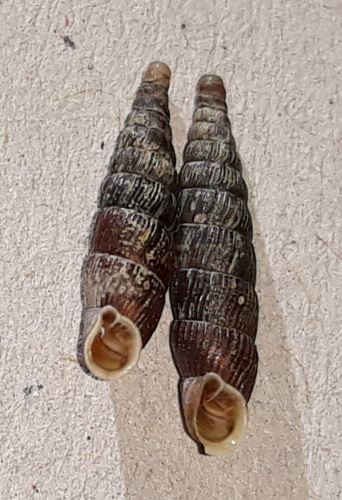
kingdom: Animalia
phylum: Mollusca
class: Gastropoda
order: Stylommatophora
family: Clausiliidae
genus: Macrogastra
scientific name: Macrogastra plicatula
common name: Plicate door snail
